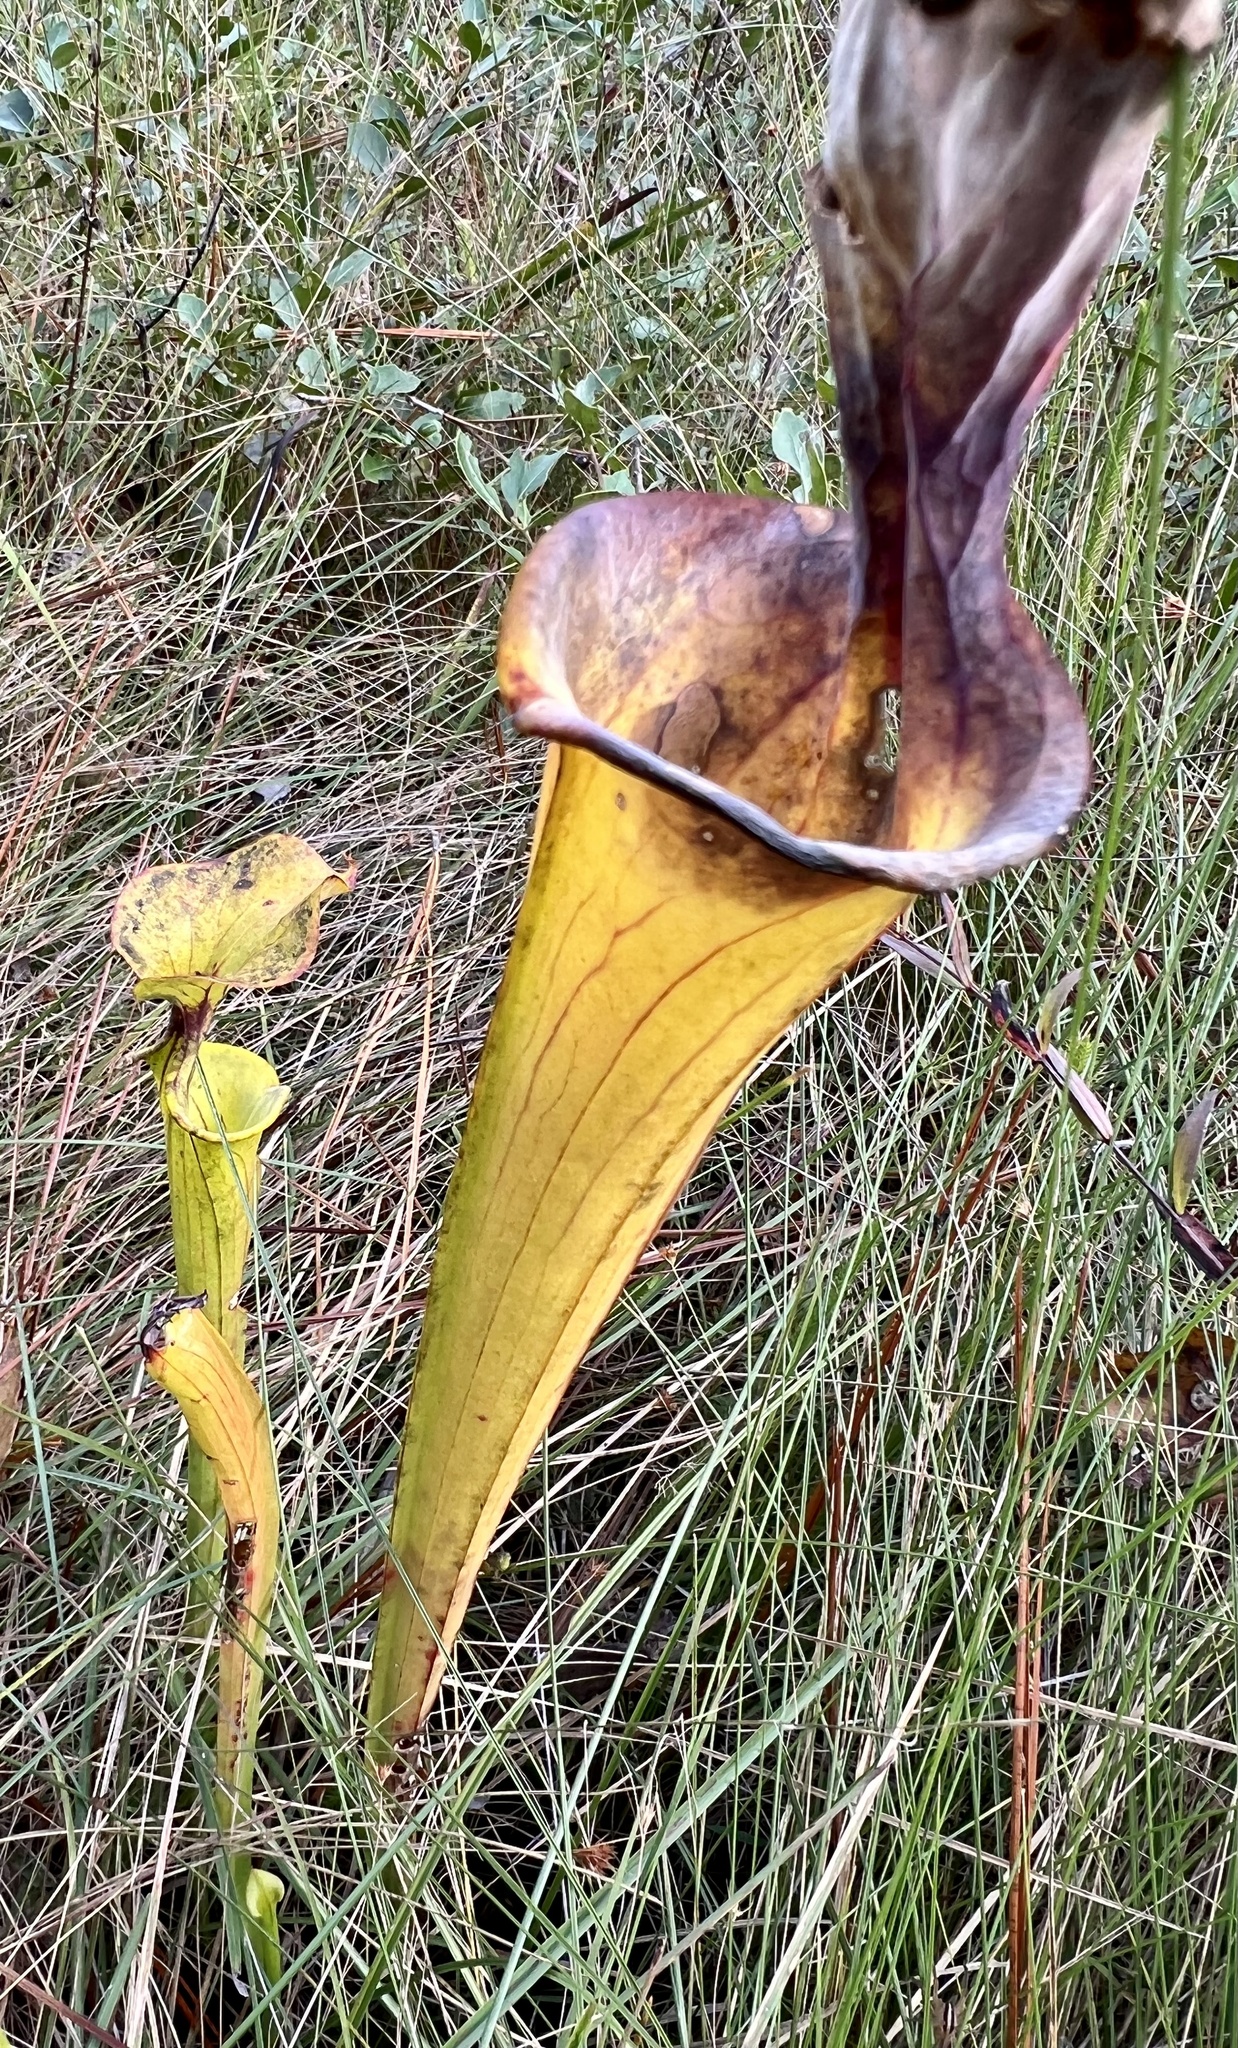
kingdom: Plantae
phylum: Tracheophyta
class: Magnoliopsida
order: Ericales
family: Sarraceniaceae
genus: Sarracenia
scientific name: Sarracenia flava
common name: Trumpets
